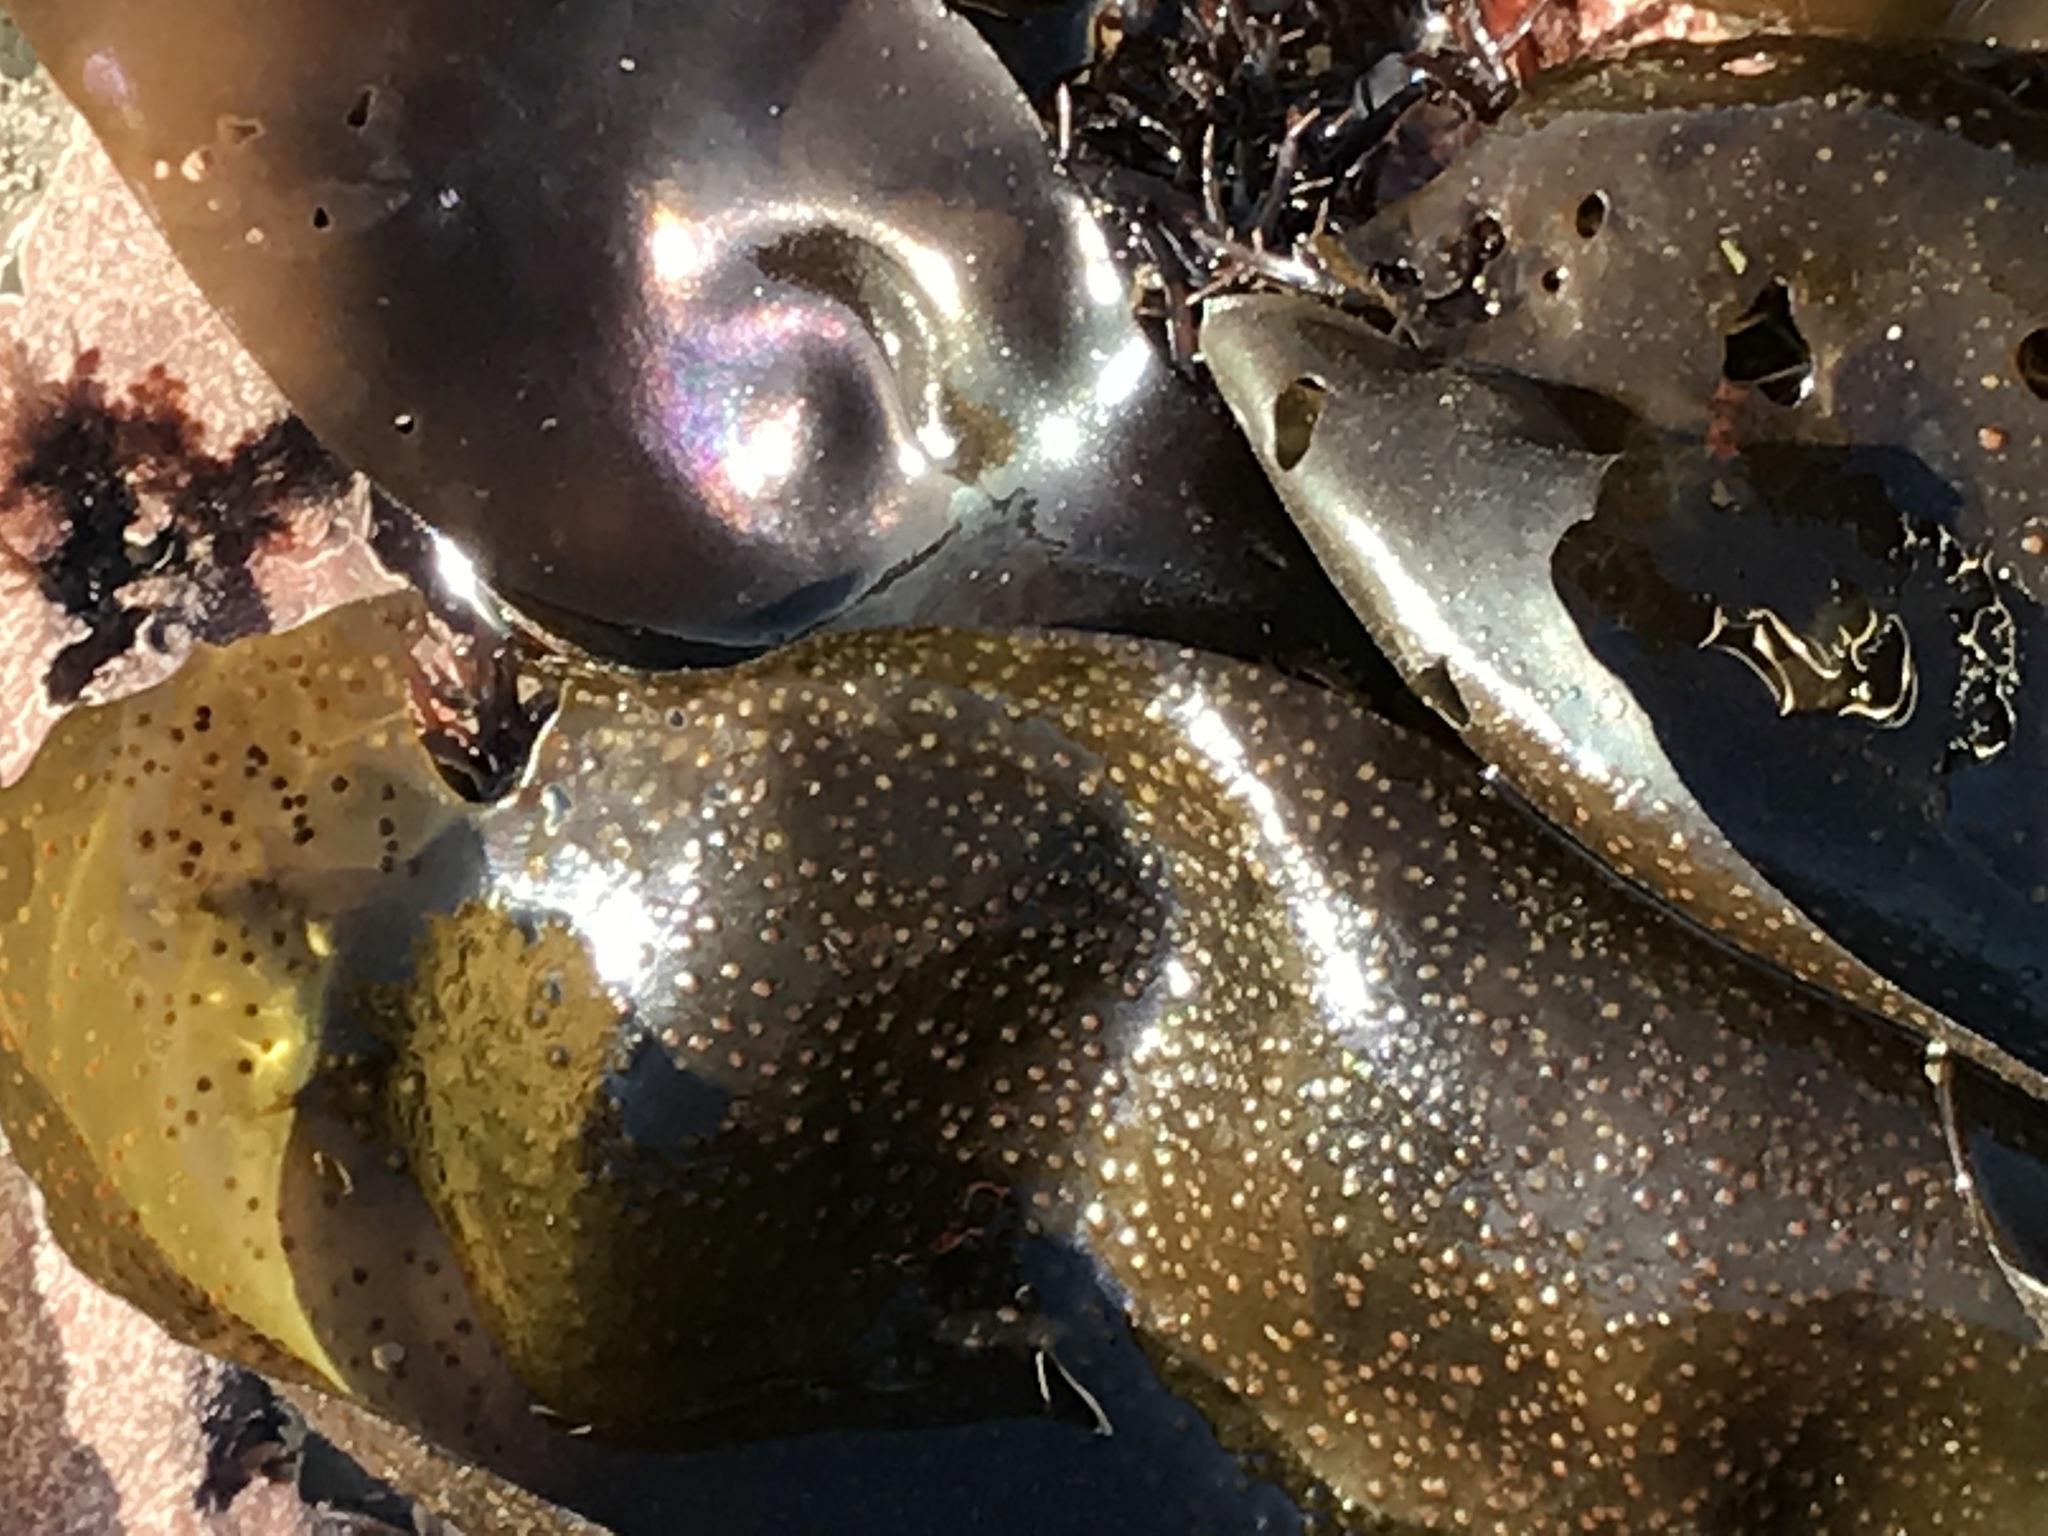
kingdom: Plantae
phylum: Rhodophyta
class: Florideophyceae
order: Gigartinales
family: Gigartinaceae
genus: Mazzaella
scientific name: Mazzaella splendens
